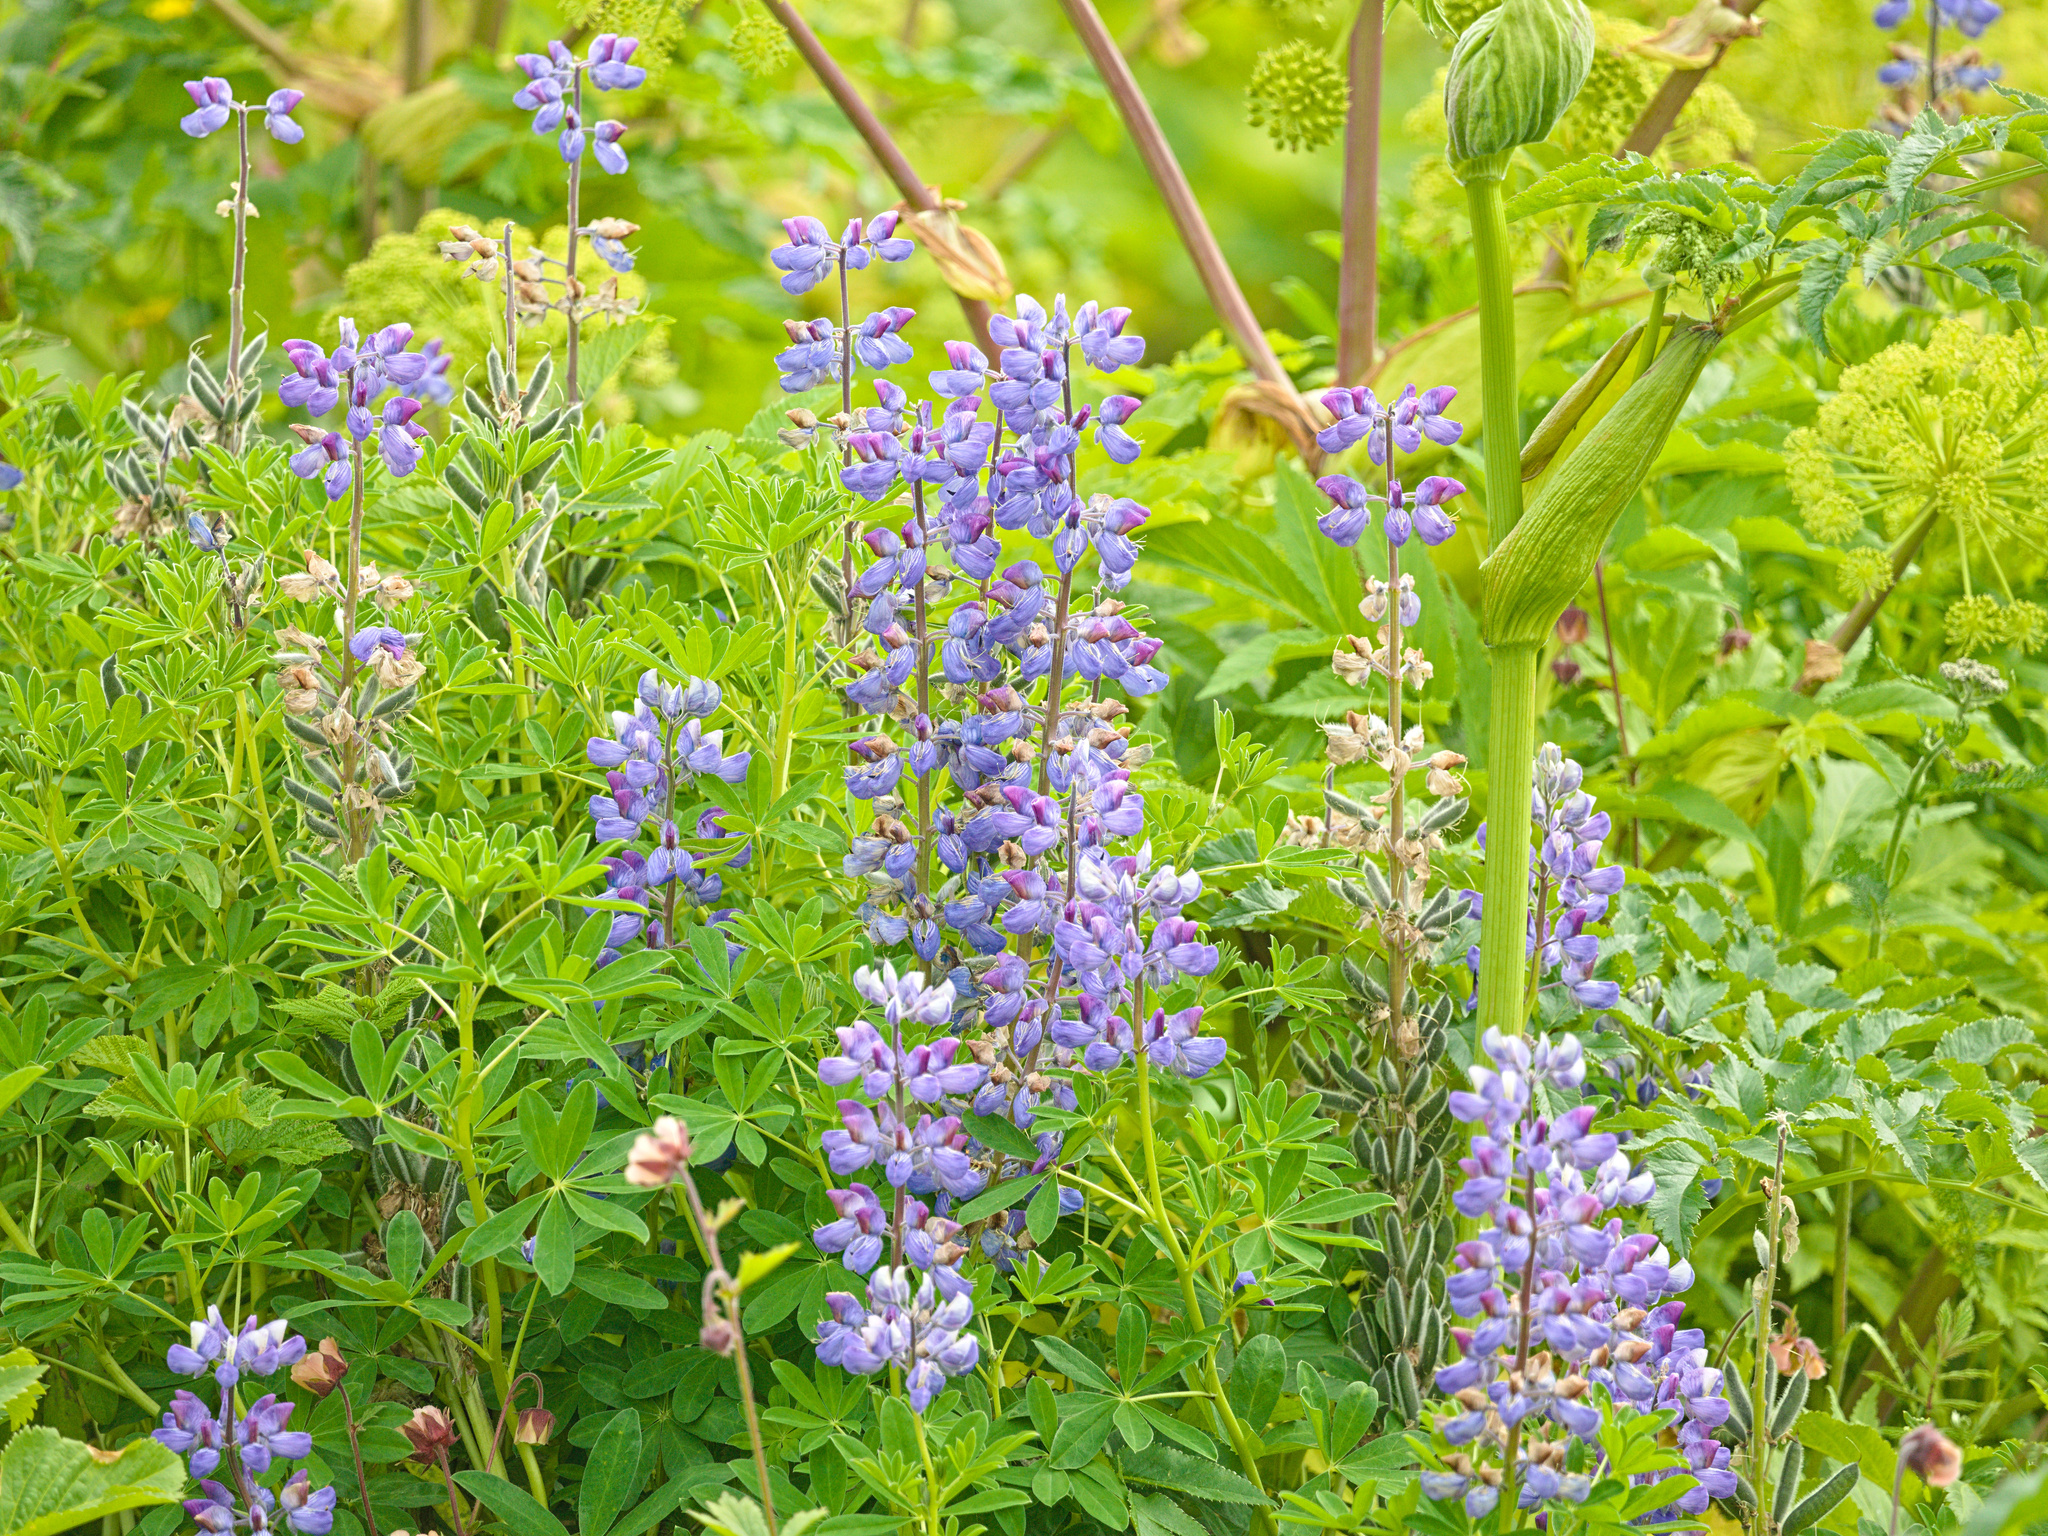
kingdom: Plantae
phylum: Tracheophyta
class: Magnoliopsida
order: Fabales
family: Fabaceae
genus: Lupinus
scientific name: Lupinus nootkatensis
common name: Nootka lupine
